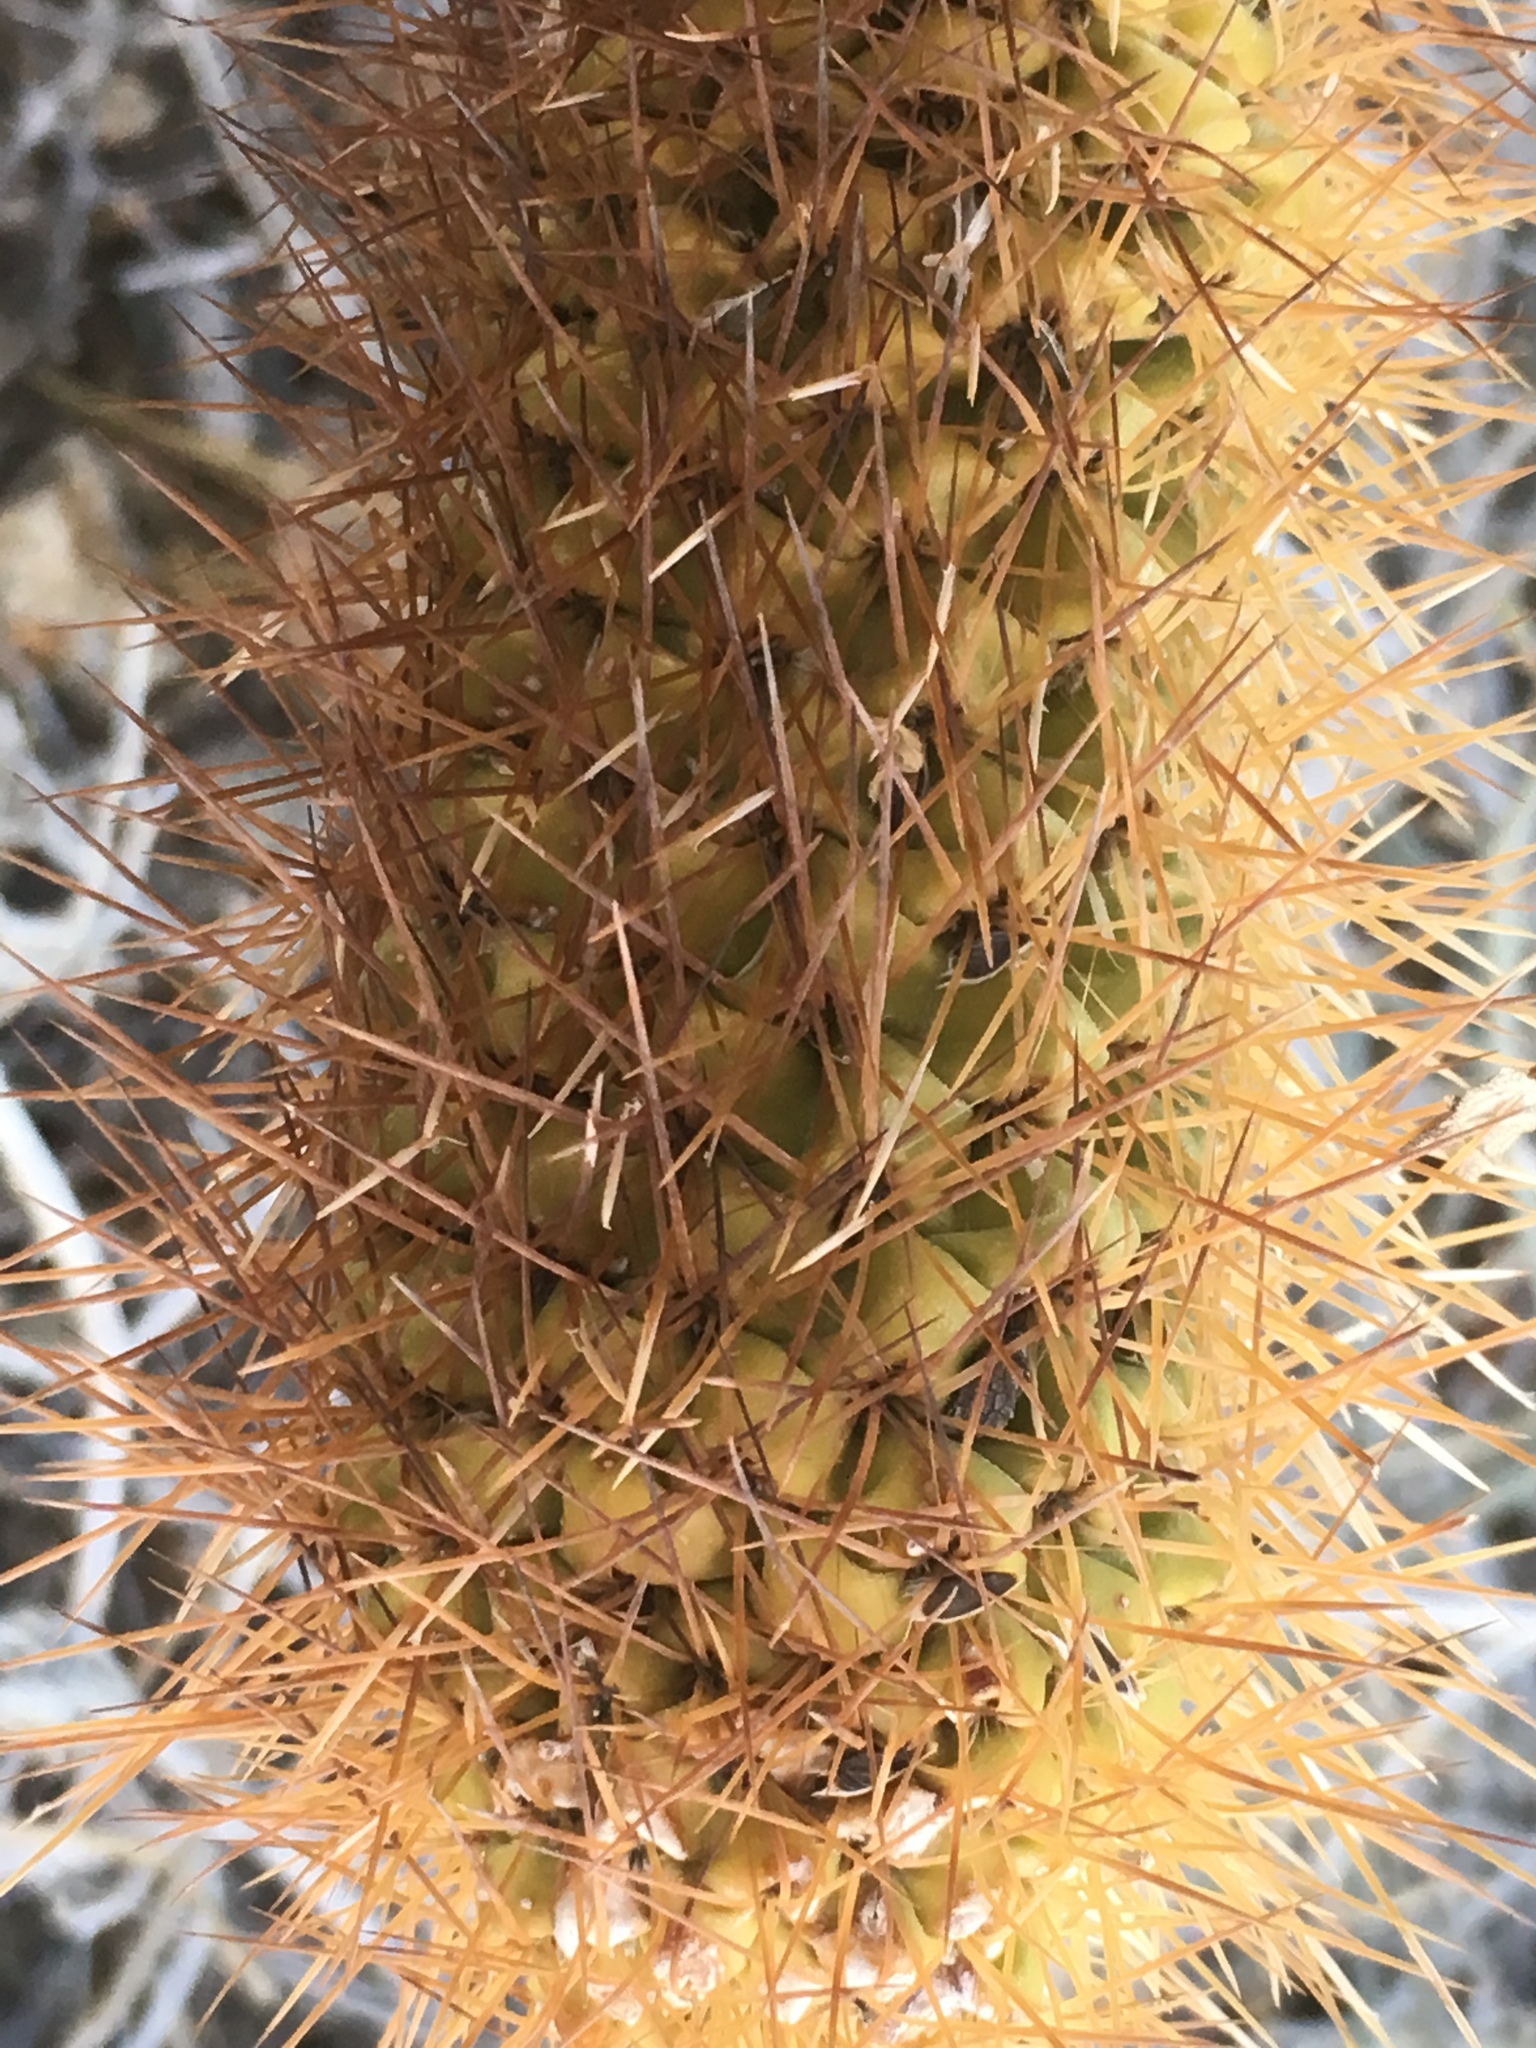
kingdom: Plantae
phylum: Tracheophyta
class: Magnoliopsida
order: Caryophyllales
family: Cactaceae
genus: Cylindropuntia
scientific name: Cylindropuntia fosbergii
